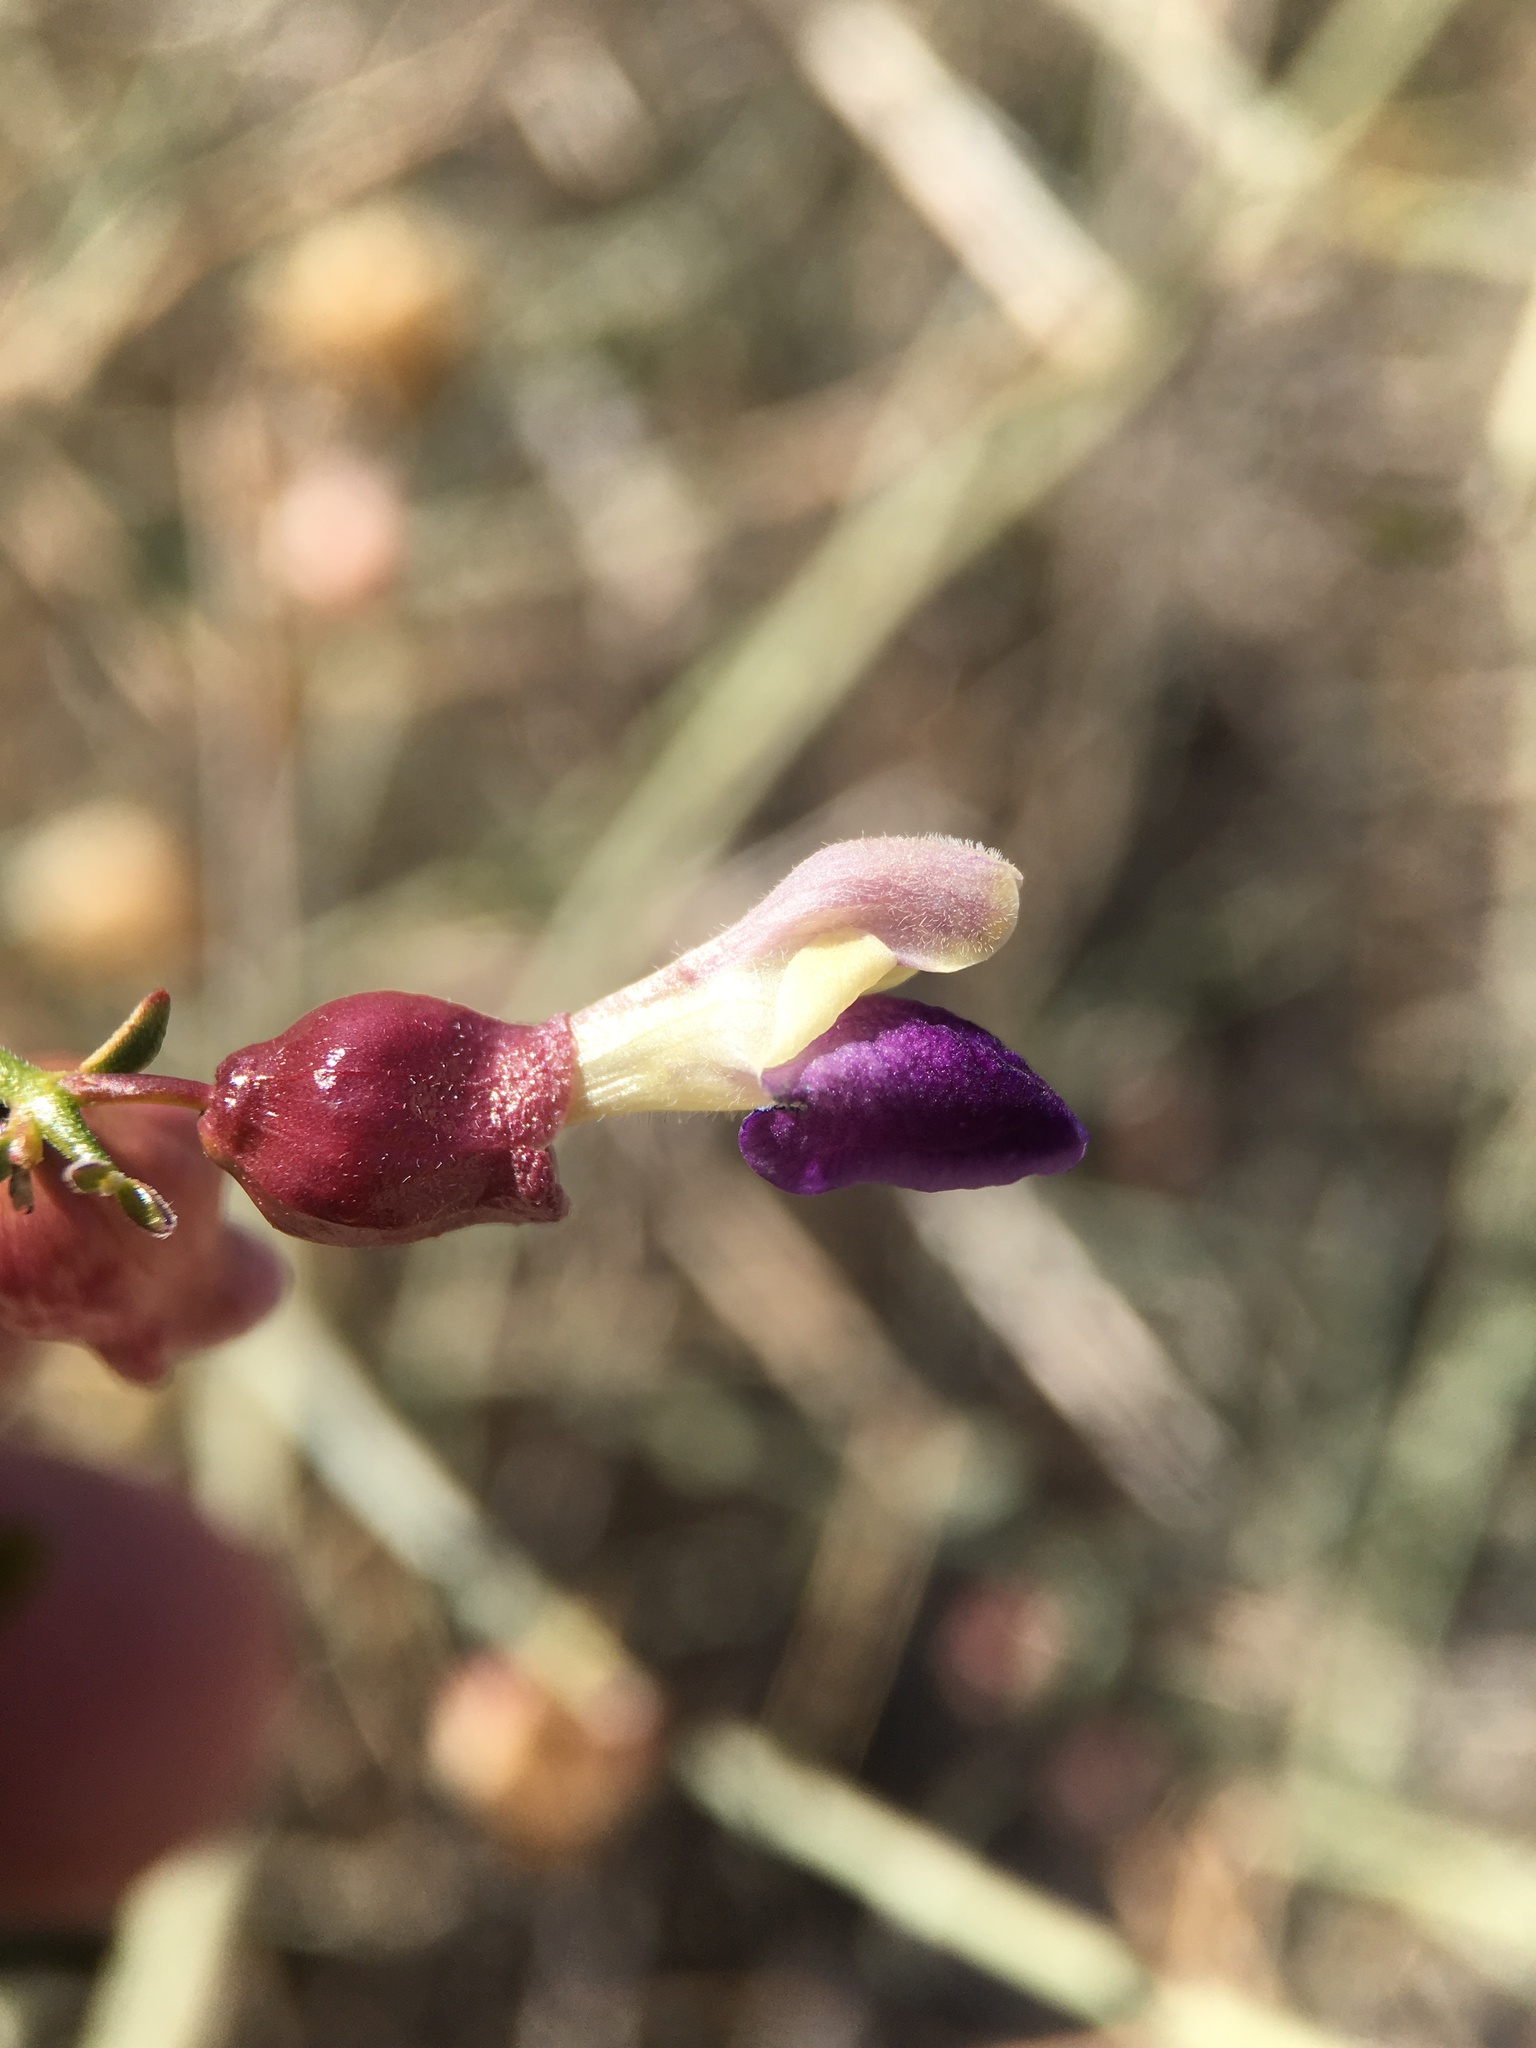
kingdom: Plantae
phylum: Tracheophyta
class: Magnoliopsida
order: Lamiales
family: Lamiaceae
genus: Scutellaria
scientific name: Scutellaria mexicana
